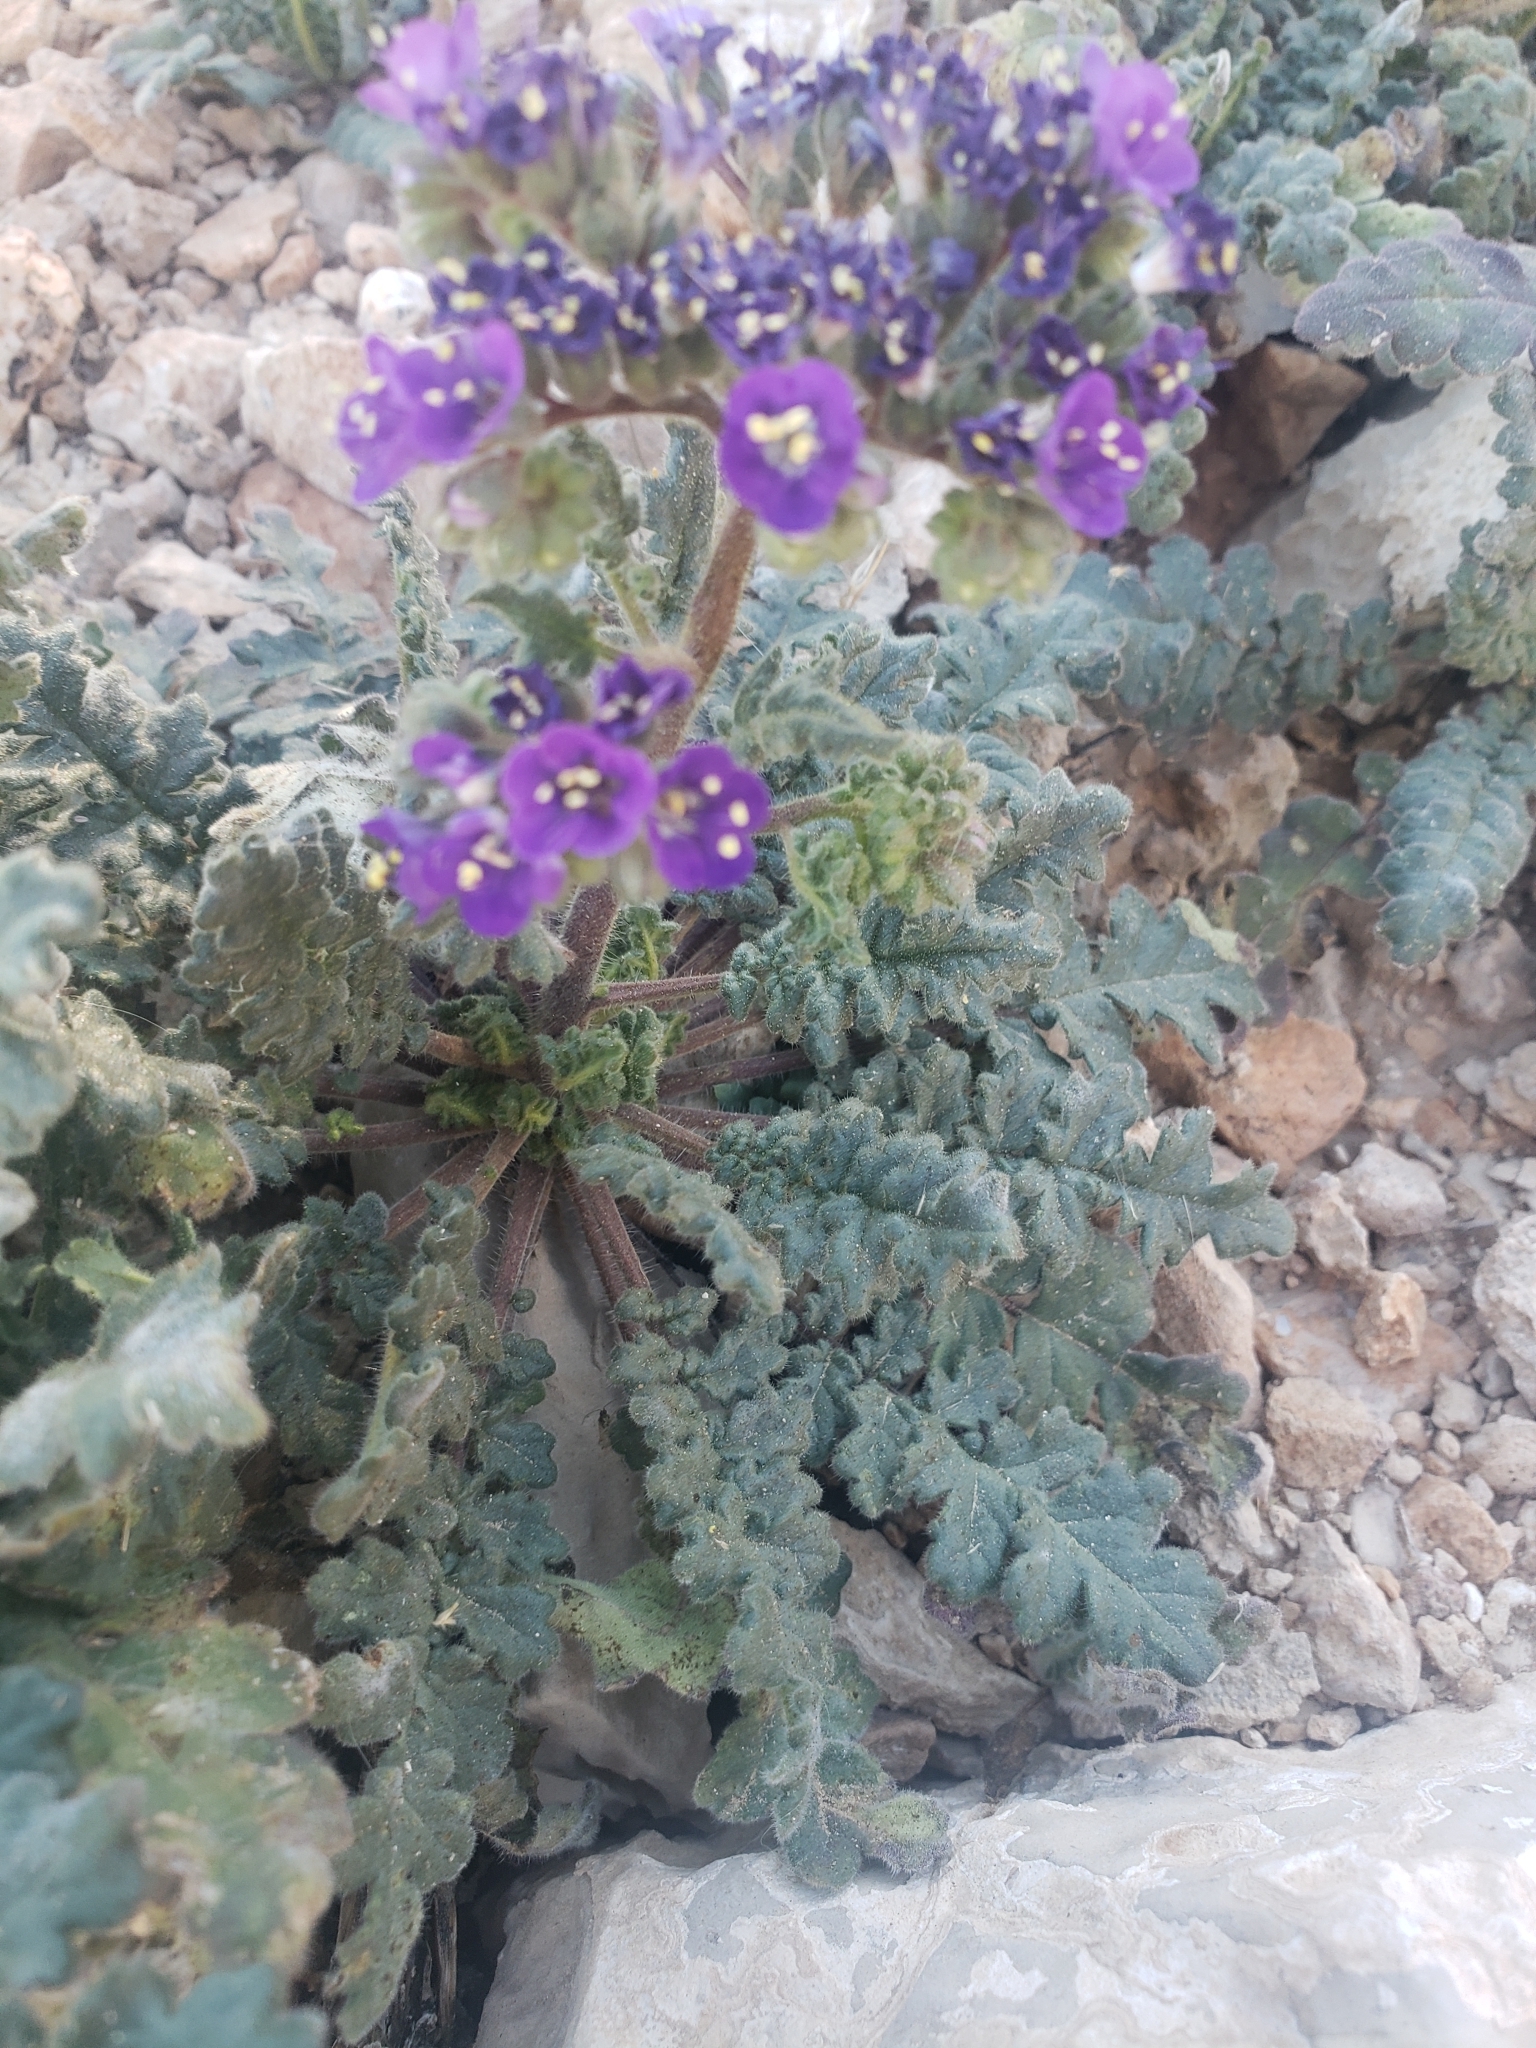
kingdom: Plantae
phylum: Tracheophyta
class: Magnoliopsida
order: Boraginales
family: Hydrophyllaceae
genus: Phacelia
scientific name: Phacelia crenulata
